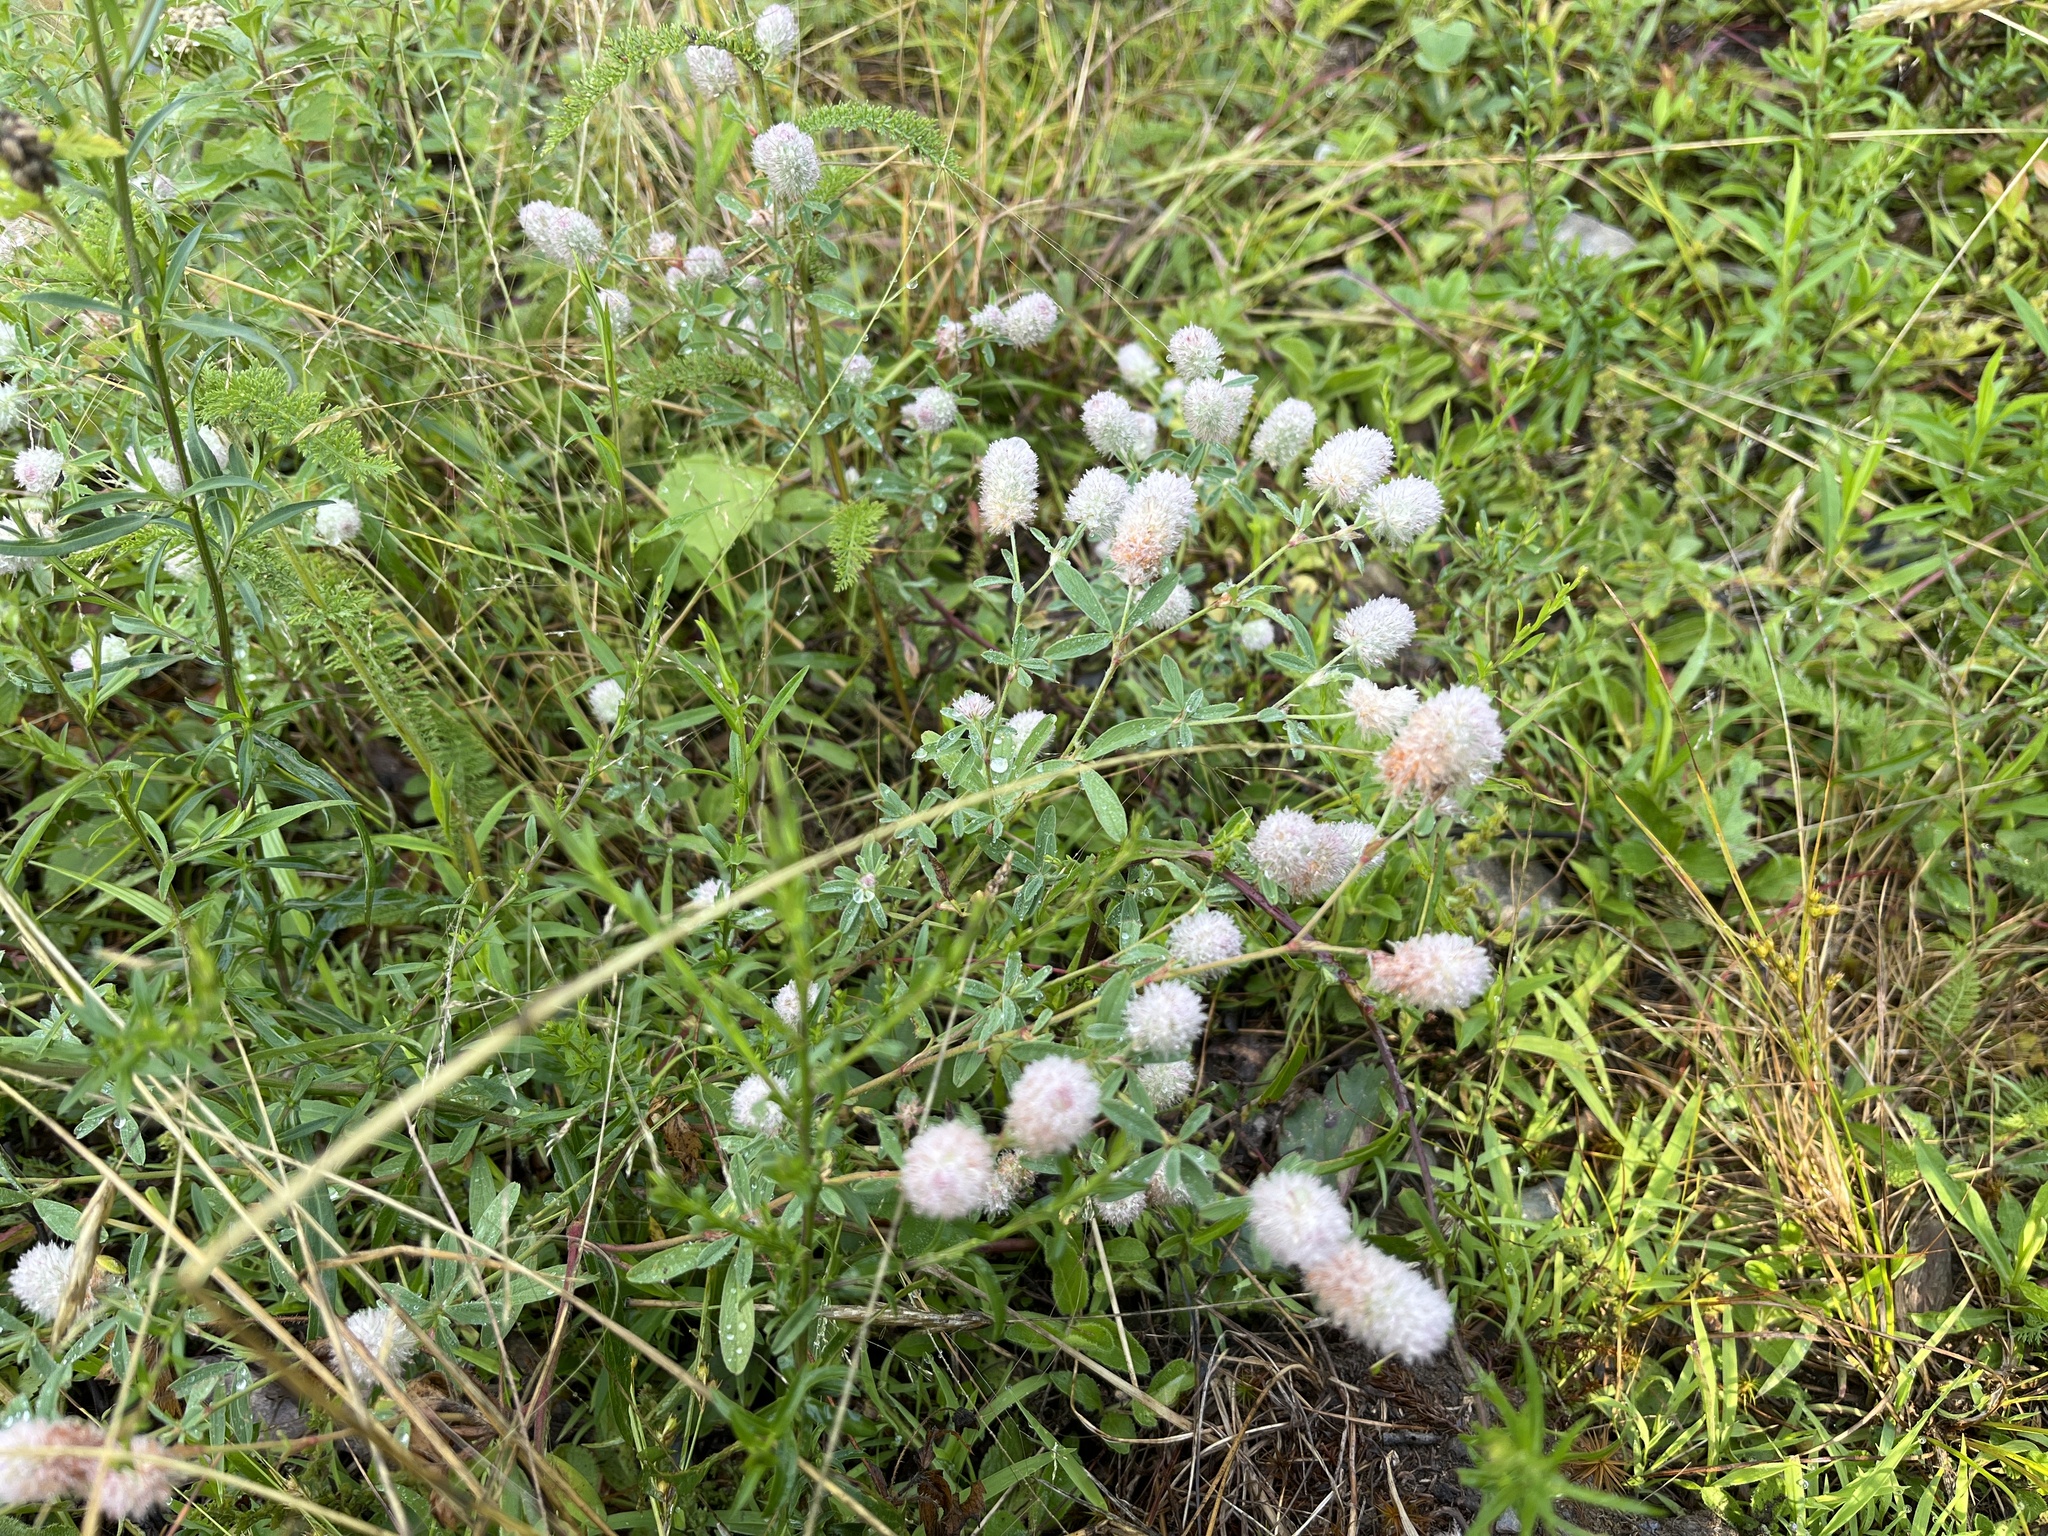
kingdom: Plantae
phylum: Tracheophyta
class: Magnoliopsida
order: Fabales
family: Fabaceae
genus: Trifolium
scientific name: Trifolium arvense
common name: Hare's-foot clover
